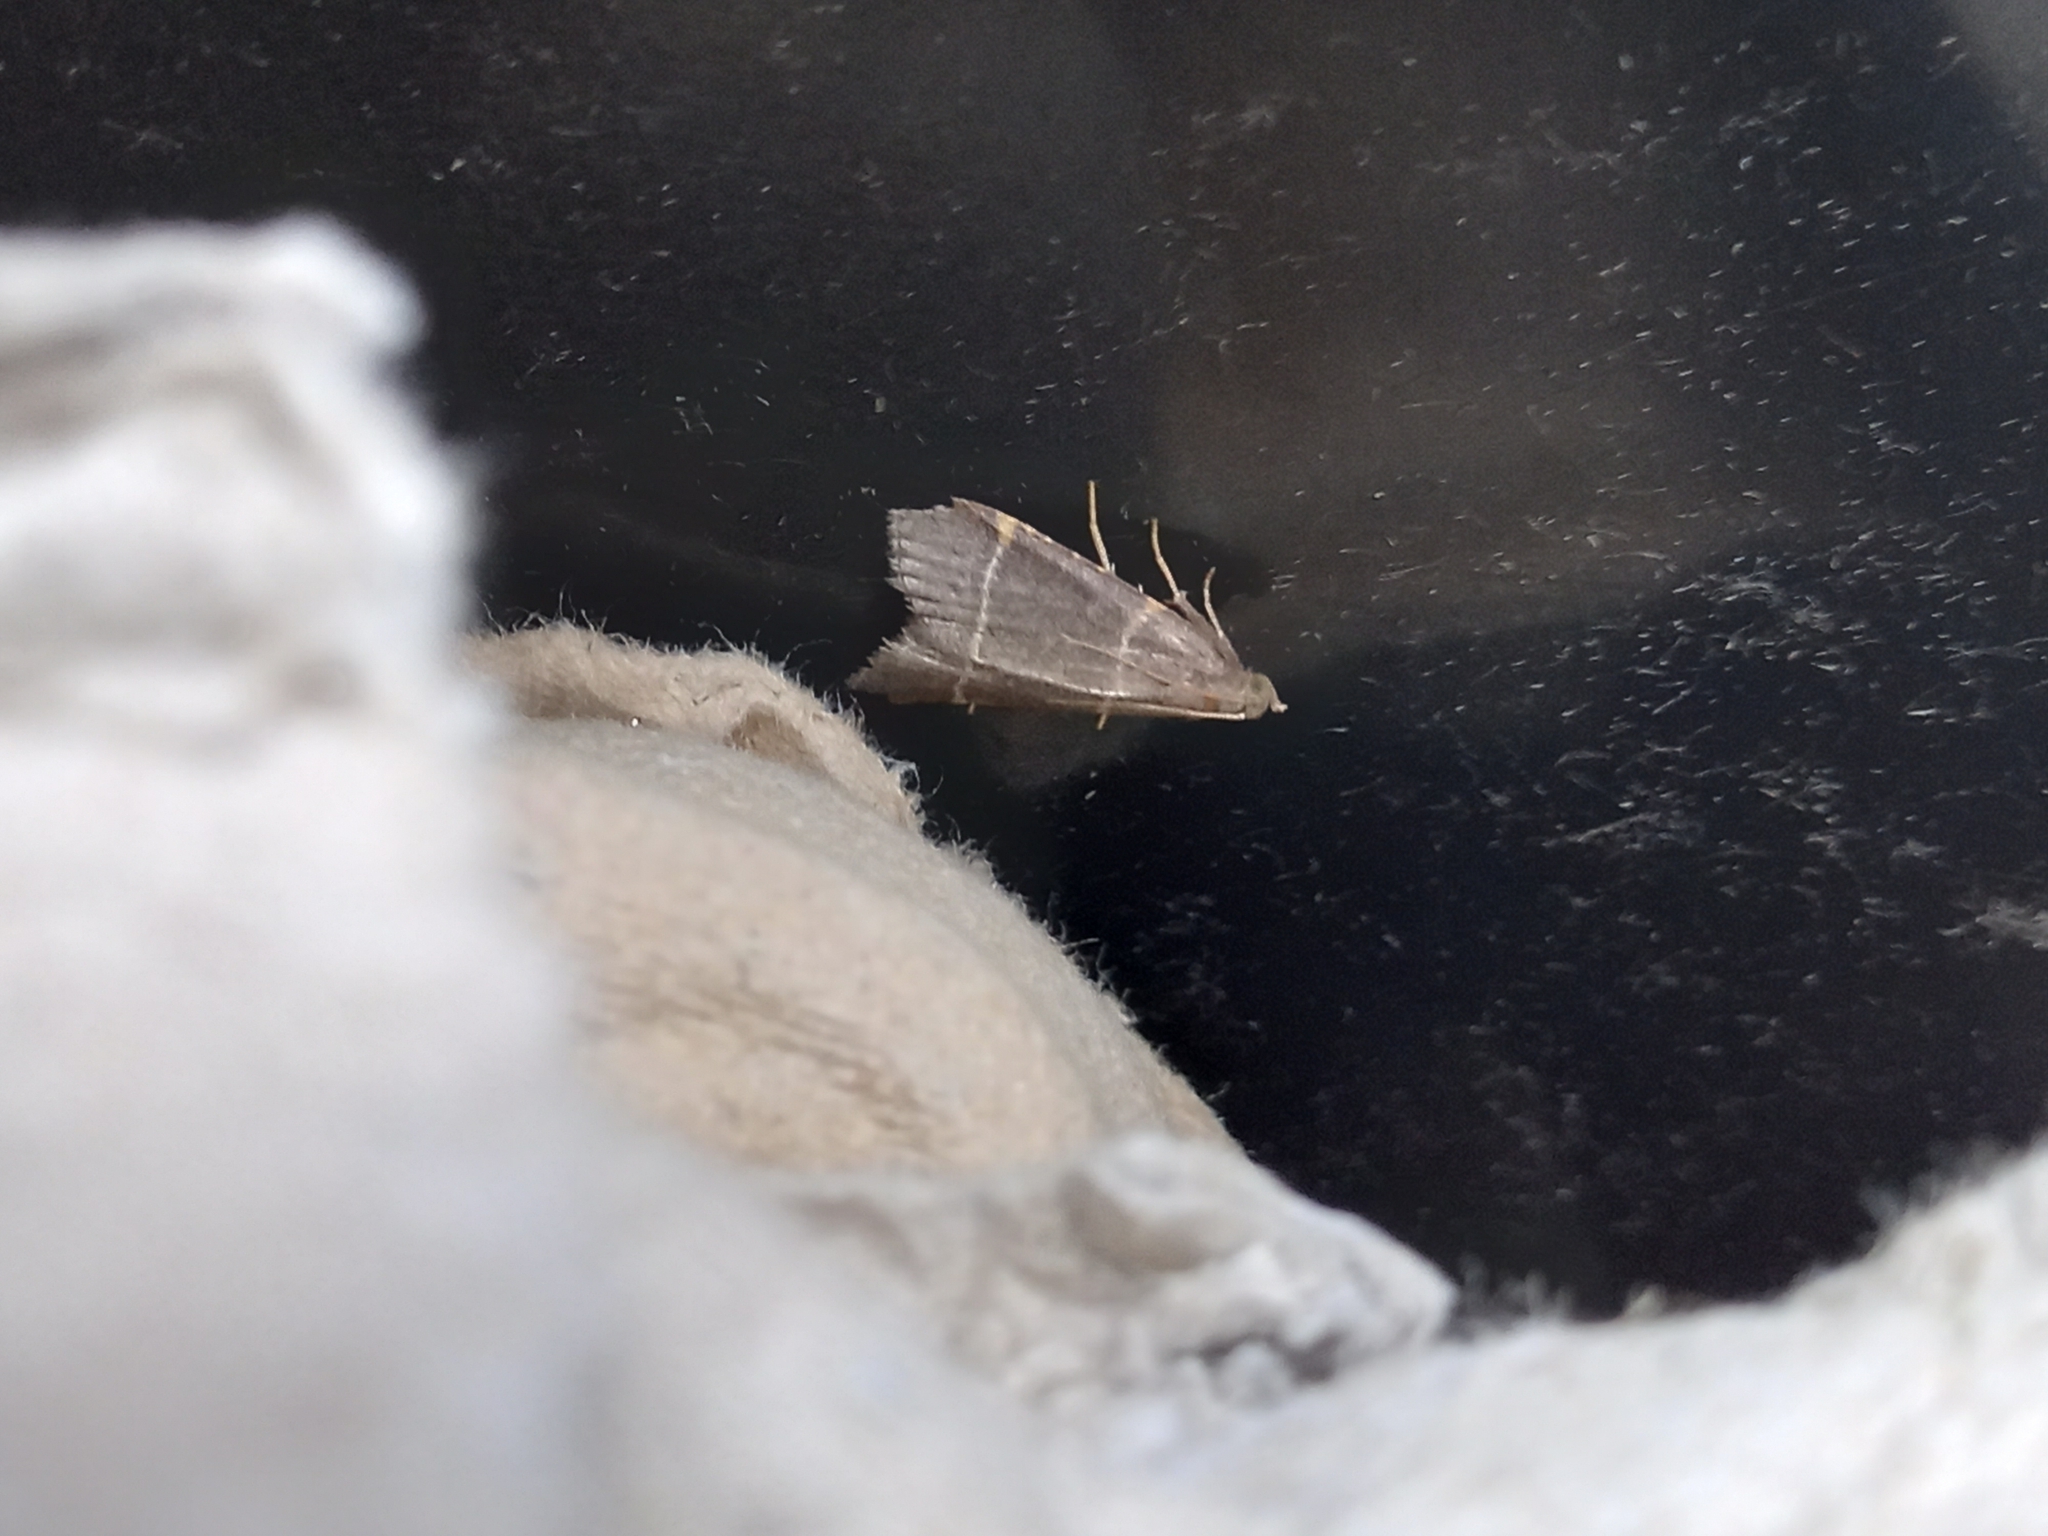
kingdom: Animalia
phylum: Arthropoda
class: Insecta
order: Lepidoptera
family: Pyralidae
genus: Hypsopygia
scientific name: Hypsopygia glaucinalis
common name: Double-striped tabby
